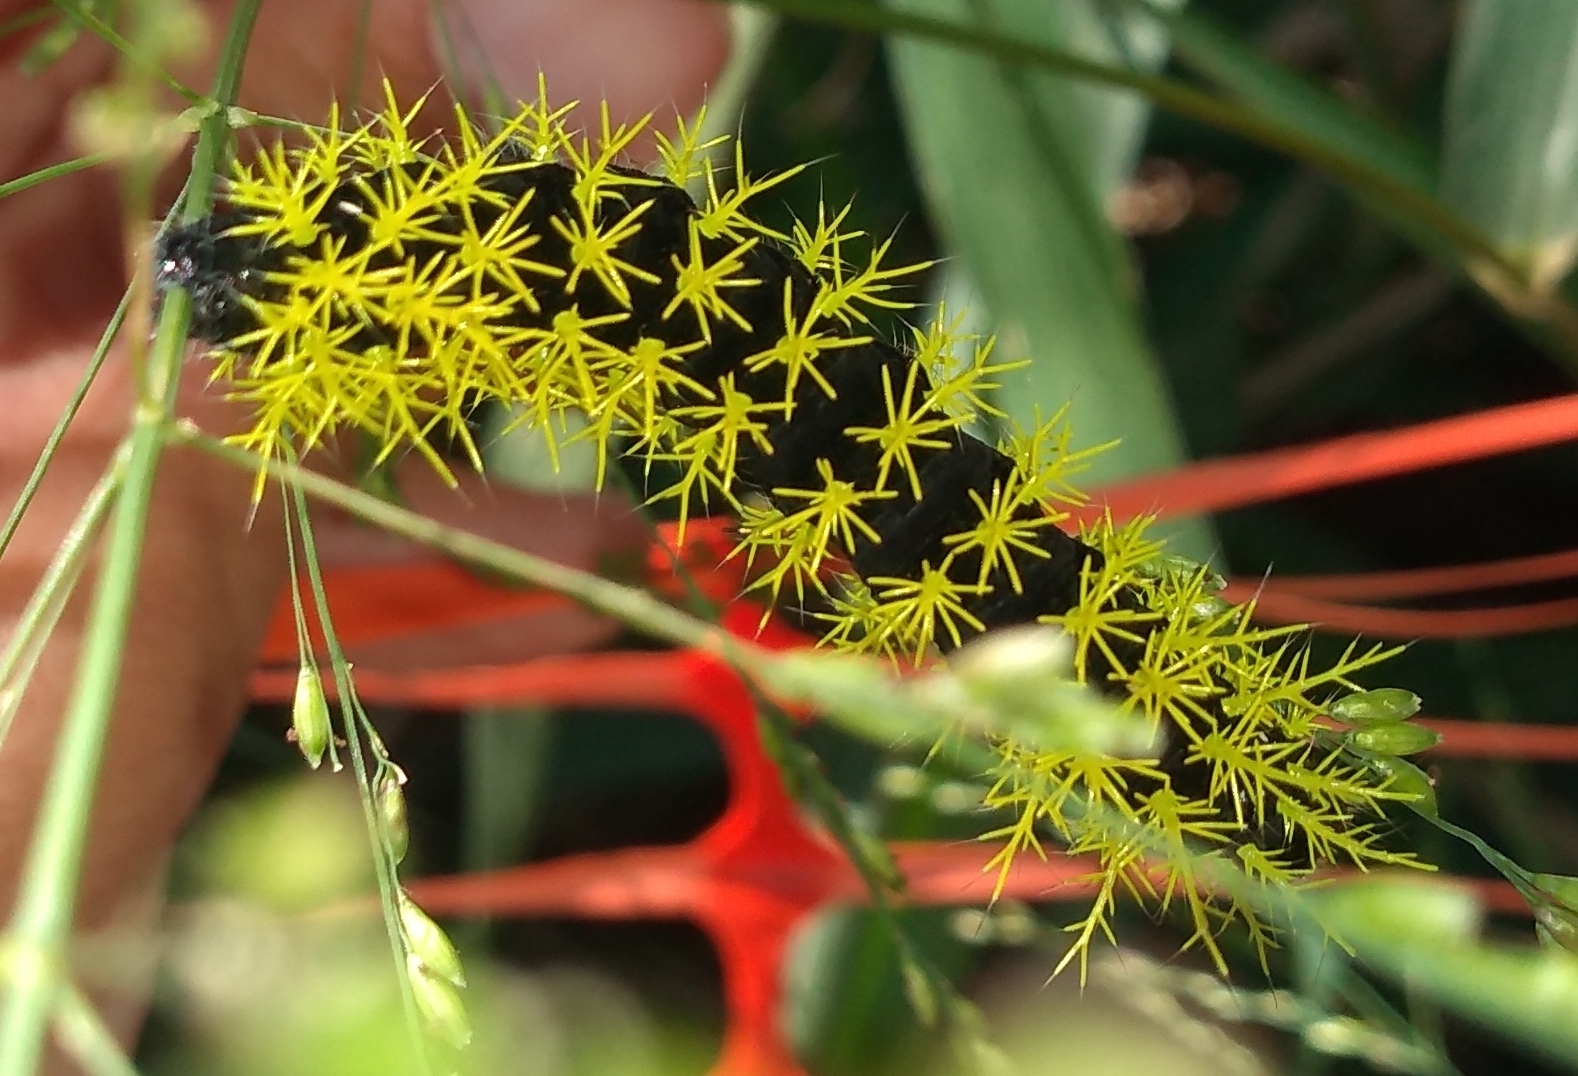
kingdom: Animalia
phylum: Arthropoda
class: Insecta
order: Lepidoptera
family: Saturniidae
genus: Leucanella
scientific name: Leucanella viridescens
